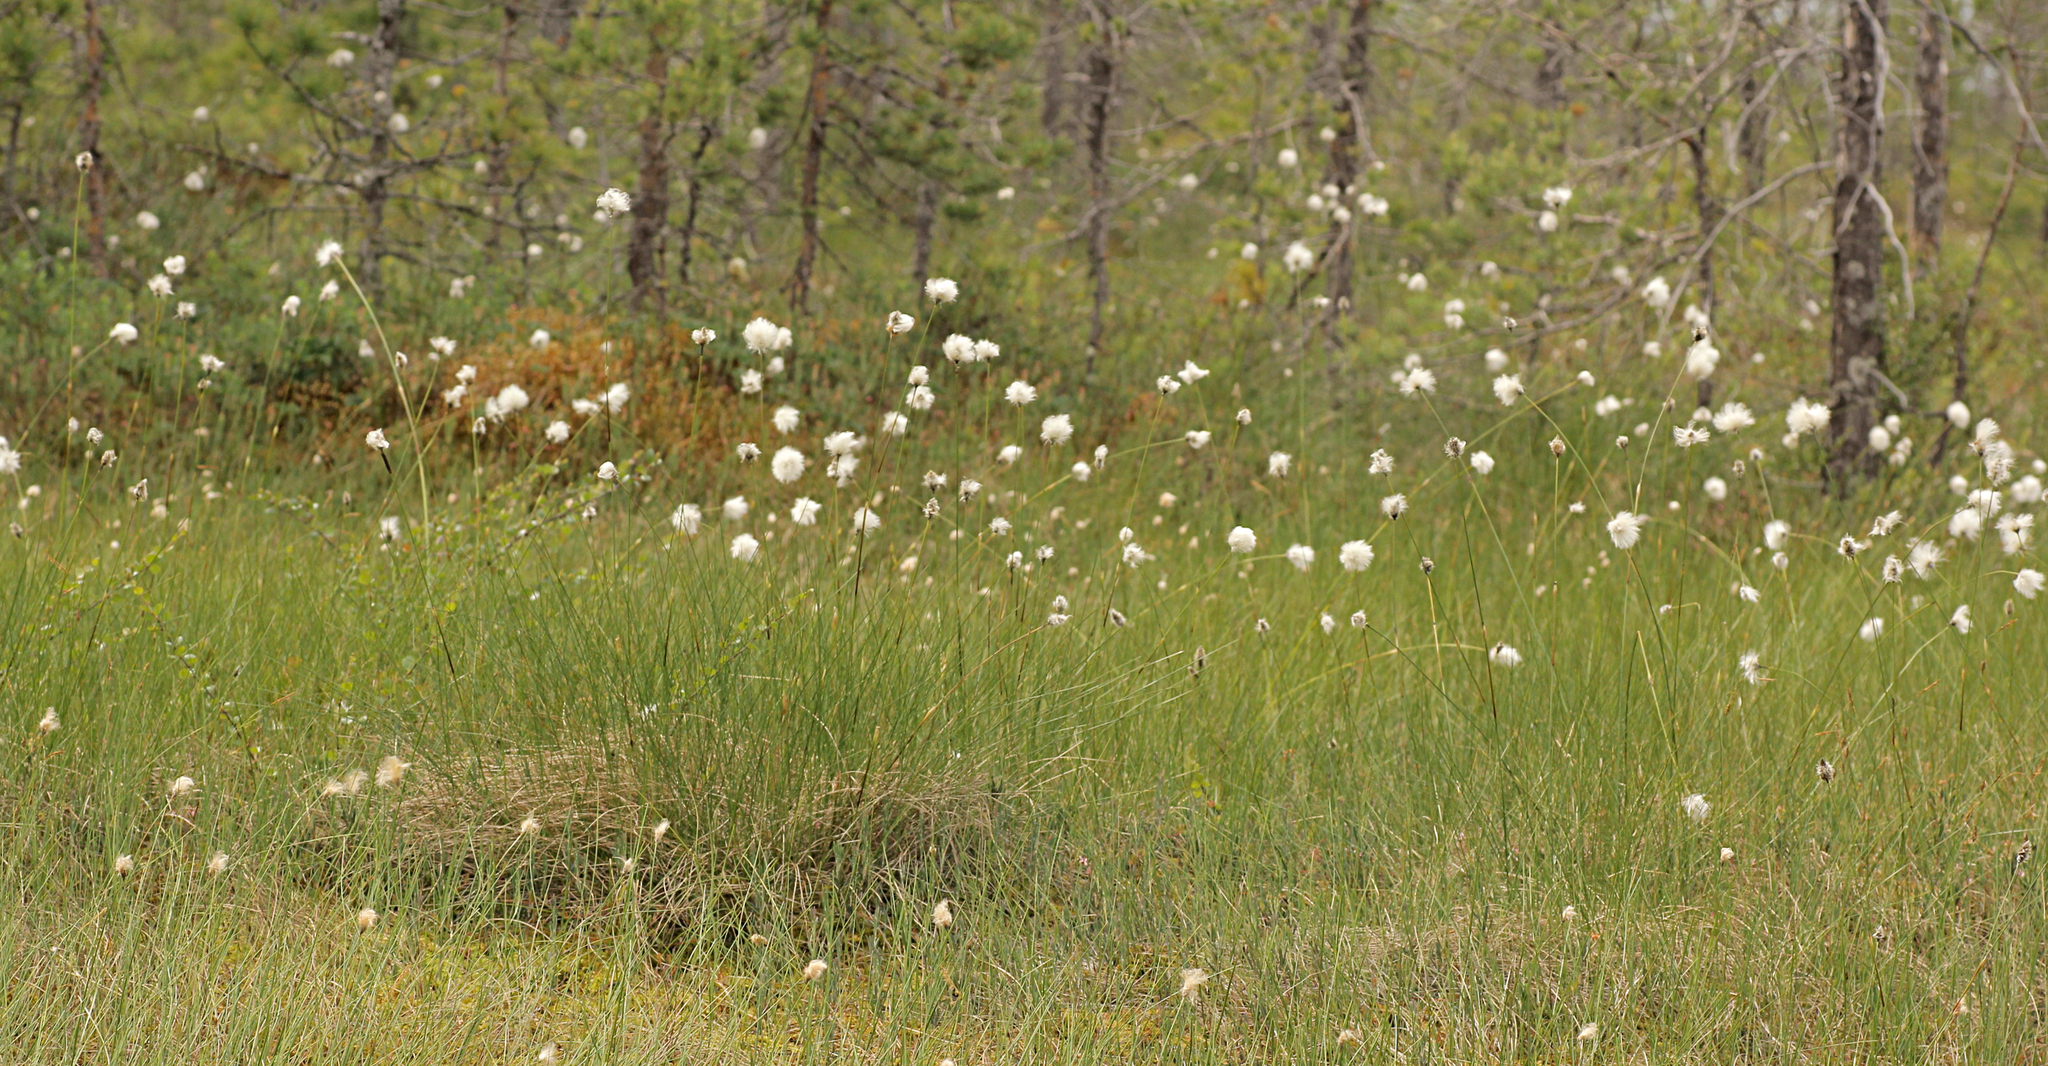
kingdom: Plantae
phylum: Tracheophyta
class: Liliopsida
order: Poales
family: Cyperaceae
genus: Eriophorum
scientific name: Eriophorum vaginatum
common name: Hare's-tail cottongrass
